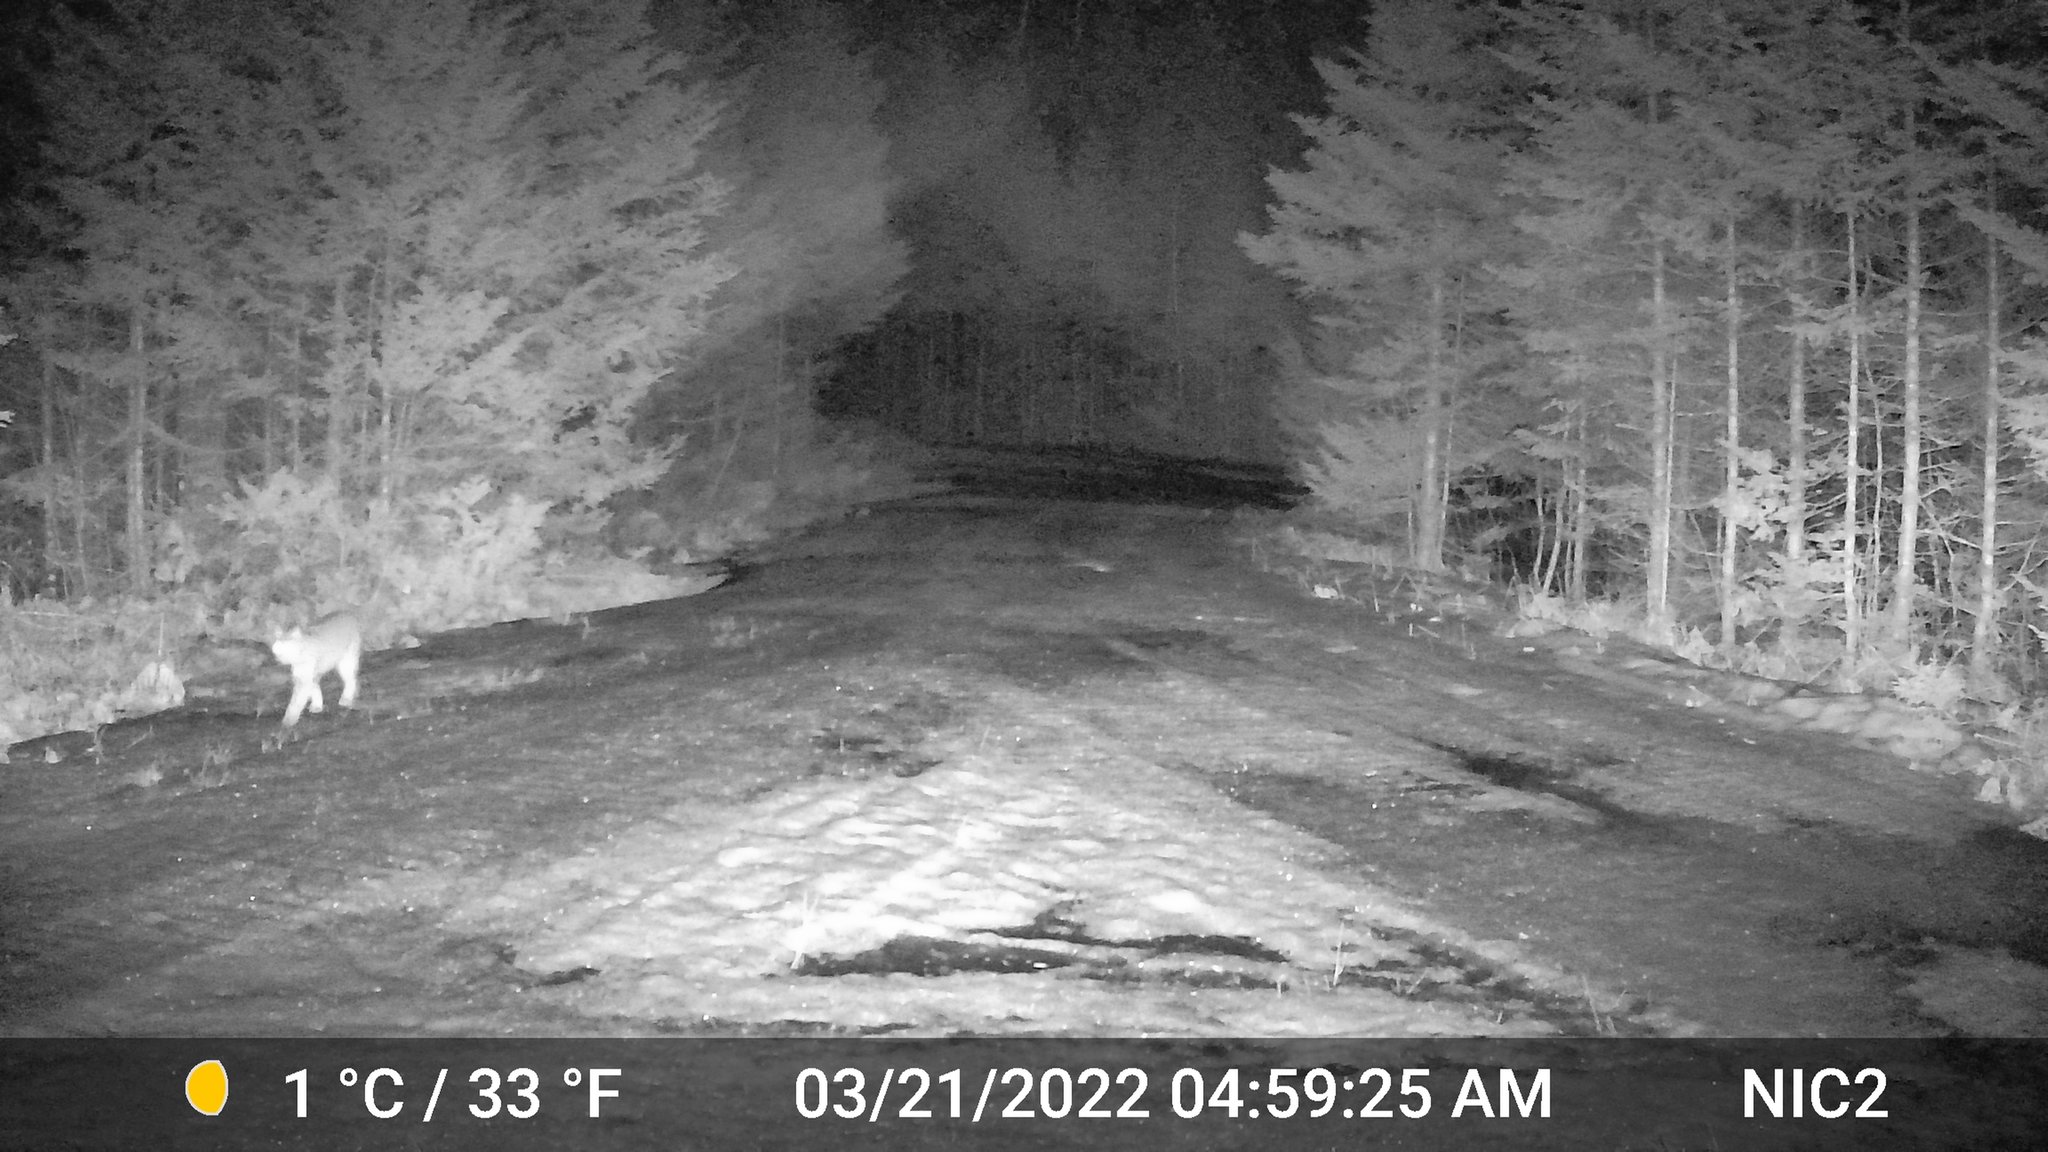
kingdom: Animalia
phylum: Chordata
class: Mammalia
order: Carnivora
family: Felidae
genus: Lynx
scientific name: Lynx rufus
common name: Bobcat
